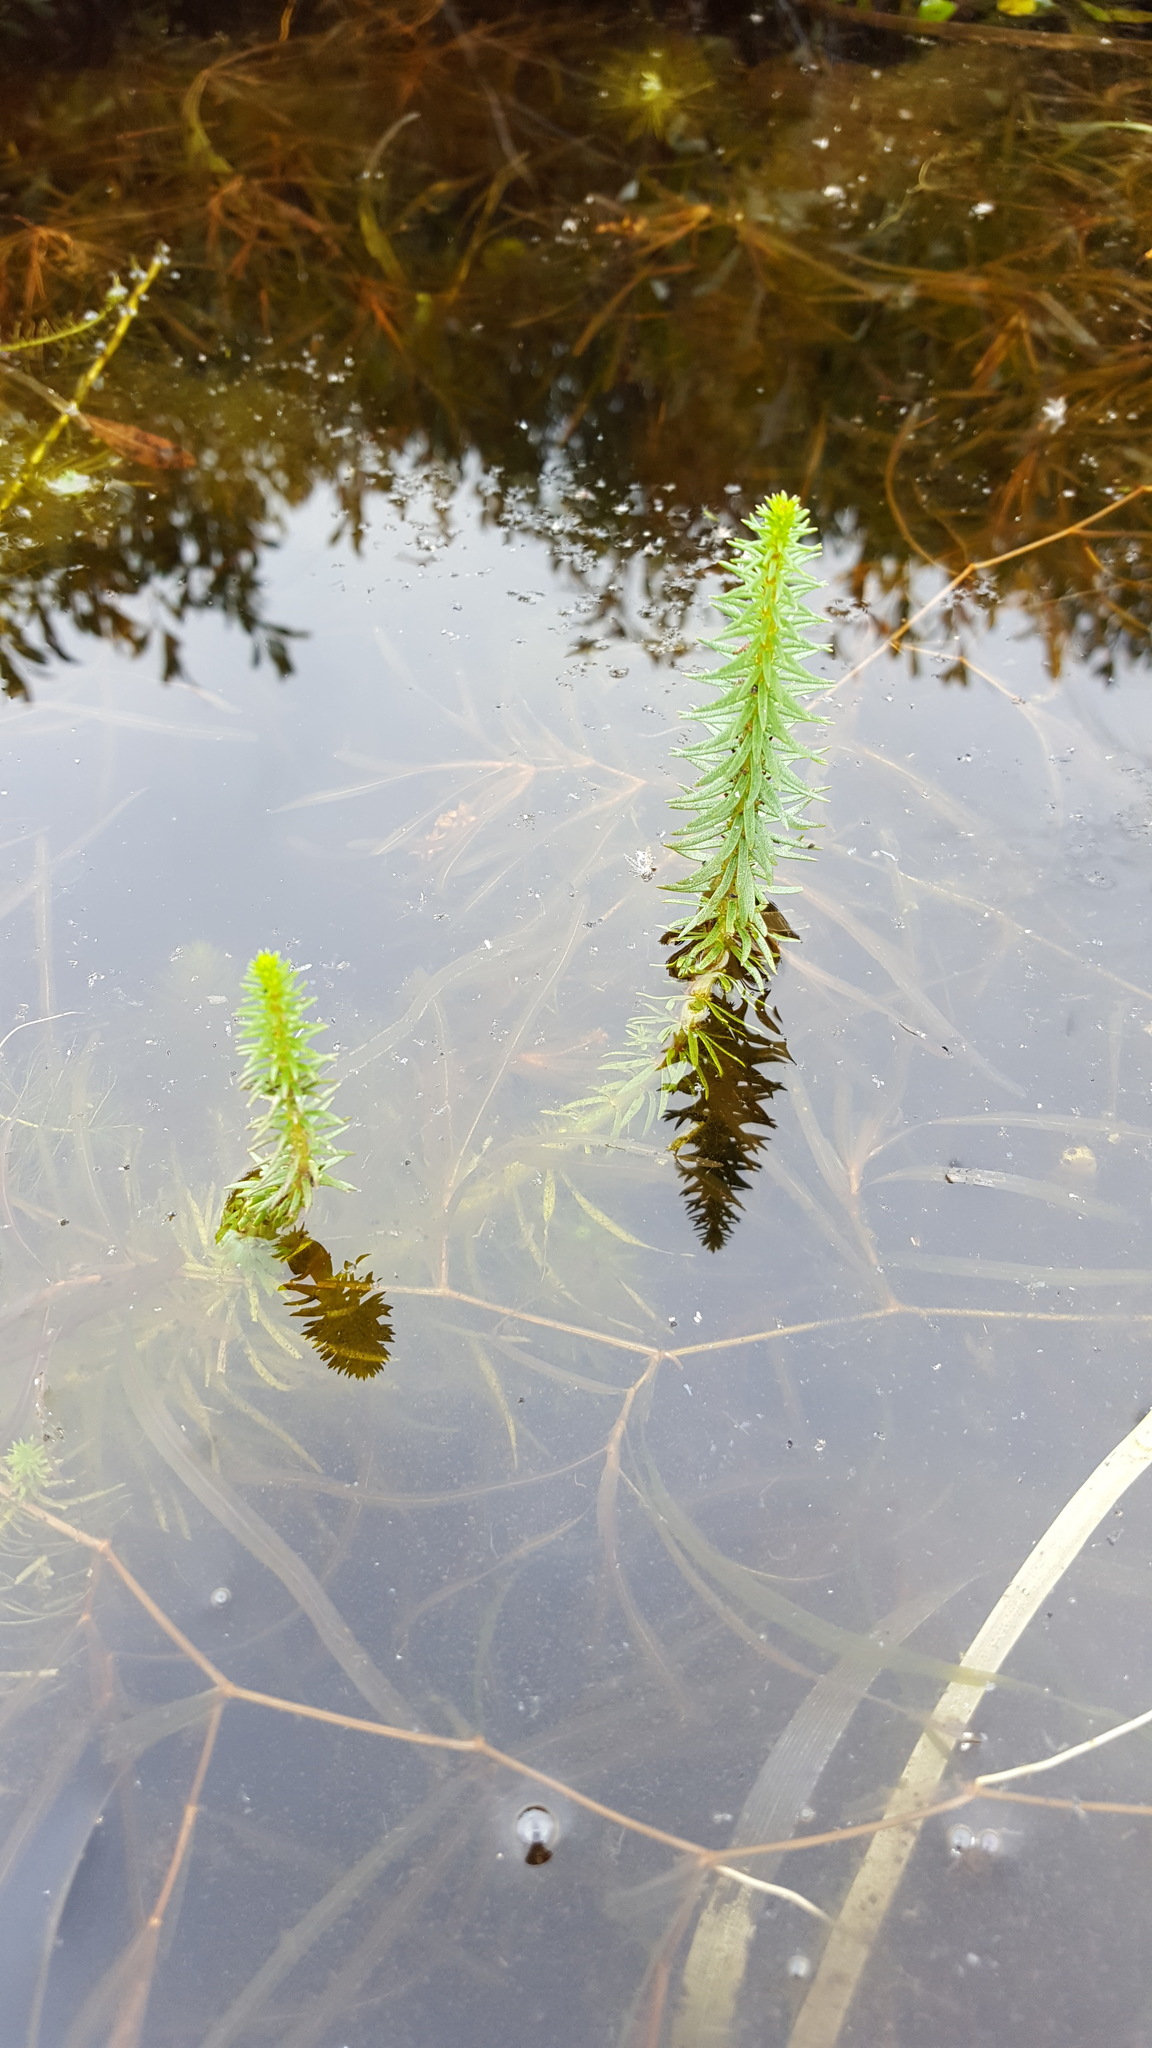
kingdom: Plantae
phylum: Tracheophyta
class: Magnoliopsida
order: Lamiales
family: Plantaginaceae
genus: Hippuris
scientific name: Hippuris vulgaris
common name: Mare's-tail
